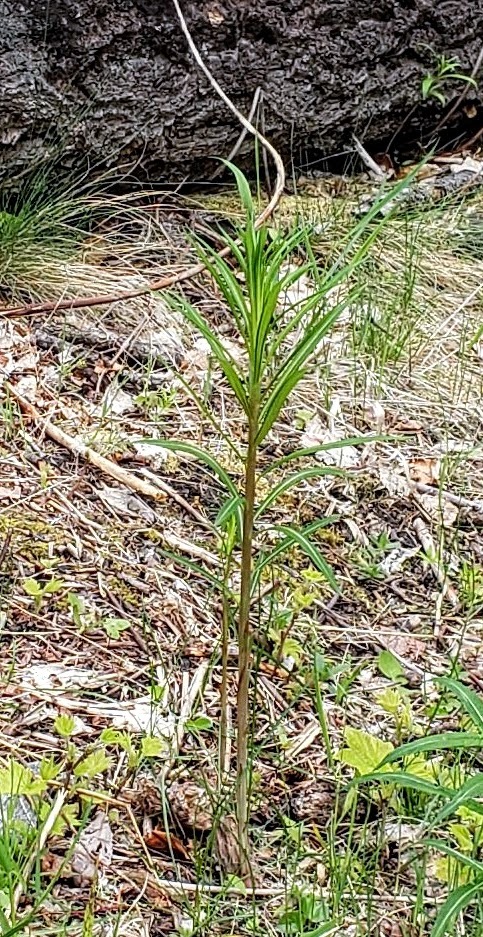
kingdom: Plantae
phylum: Tracheophyta
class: Magnoliopsida
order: Myrtales
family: Onagraceae
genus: Chamaenerion
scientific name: Chamaenerion angustifolium
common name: Fireweed
